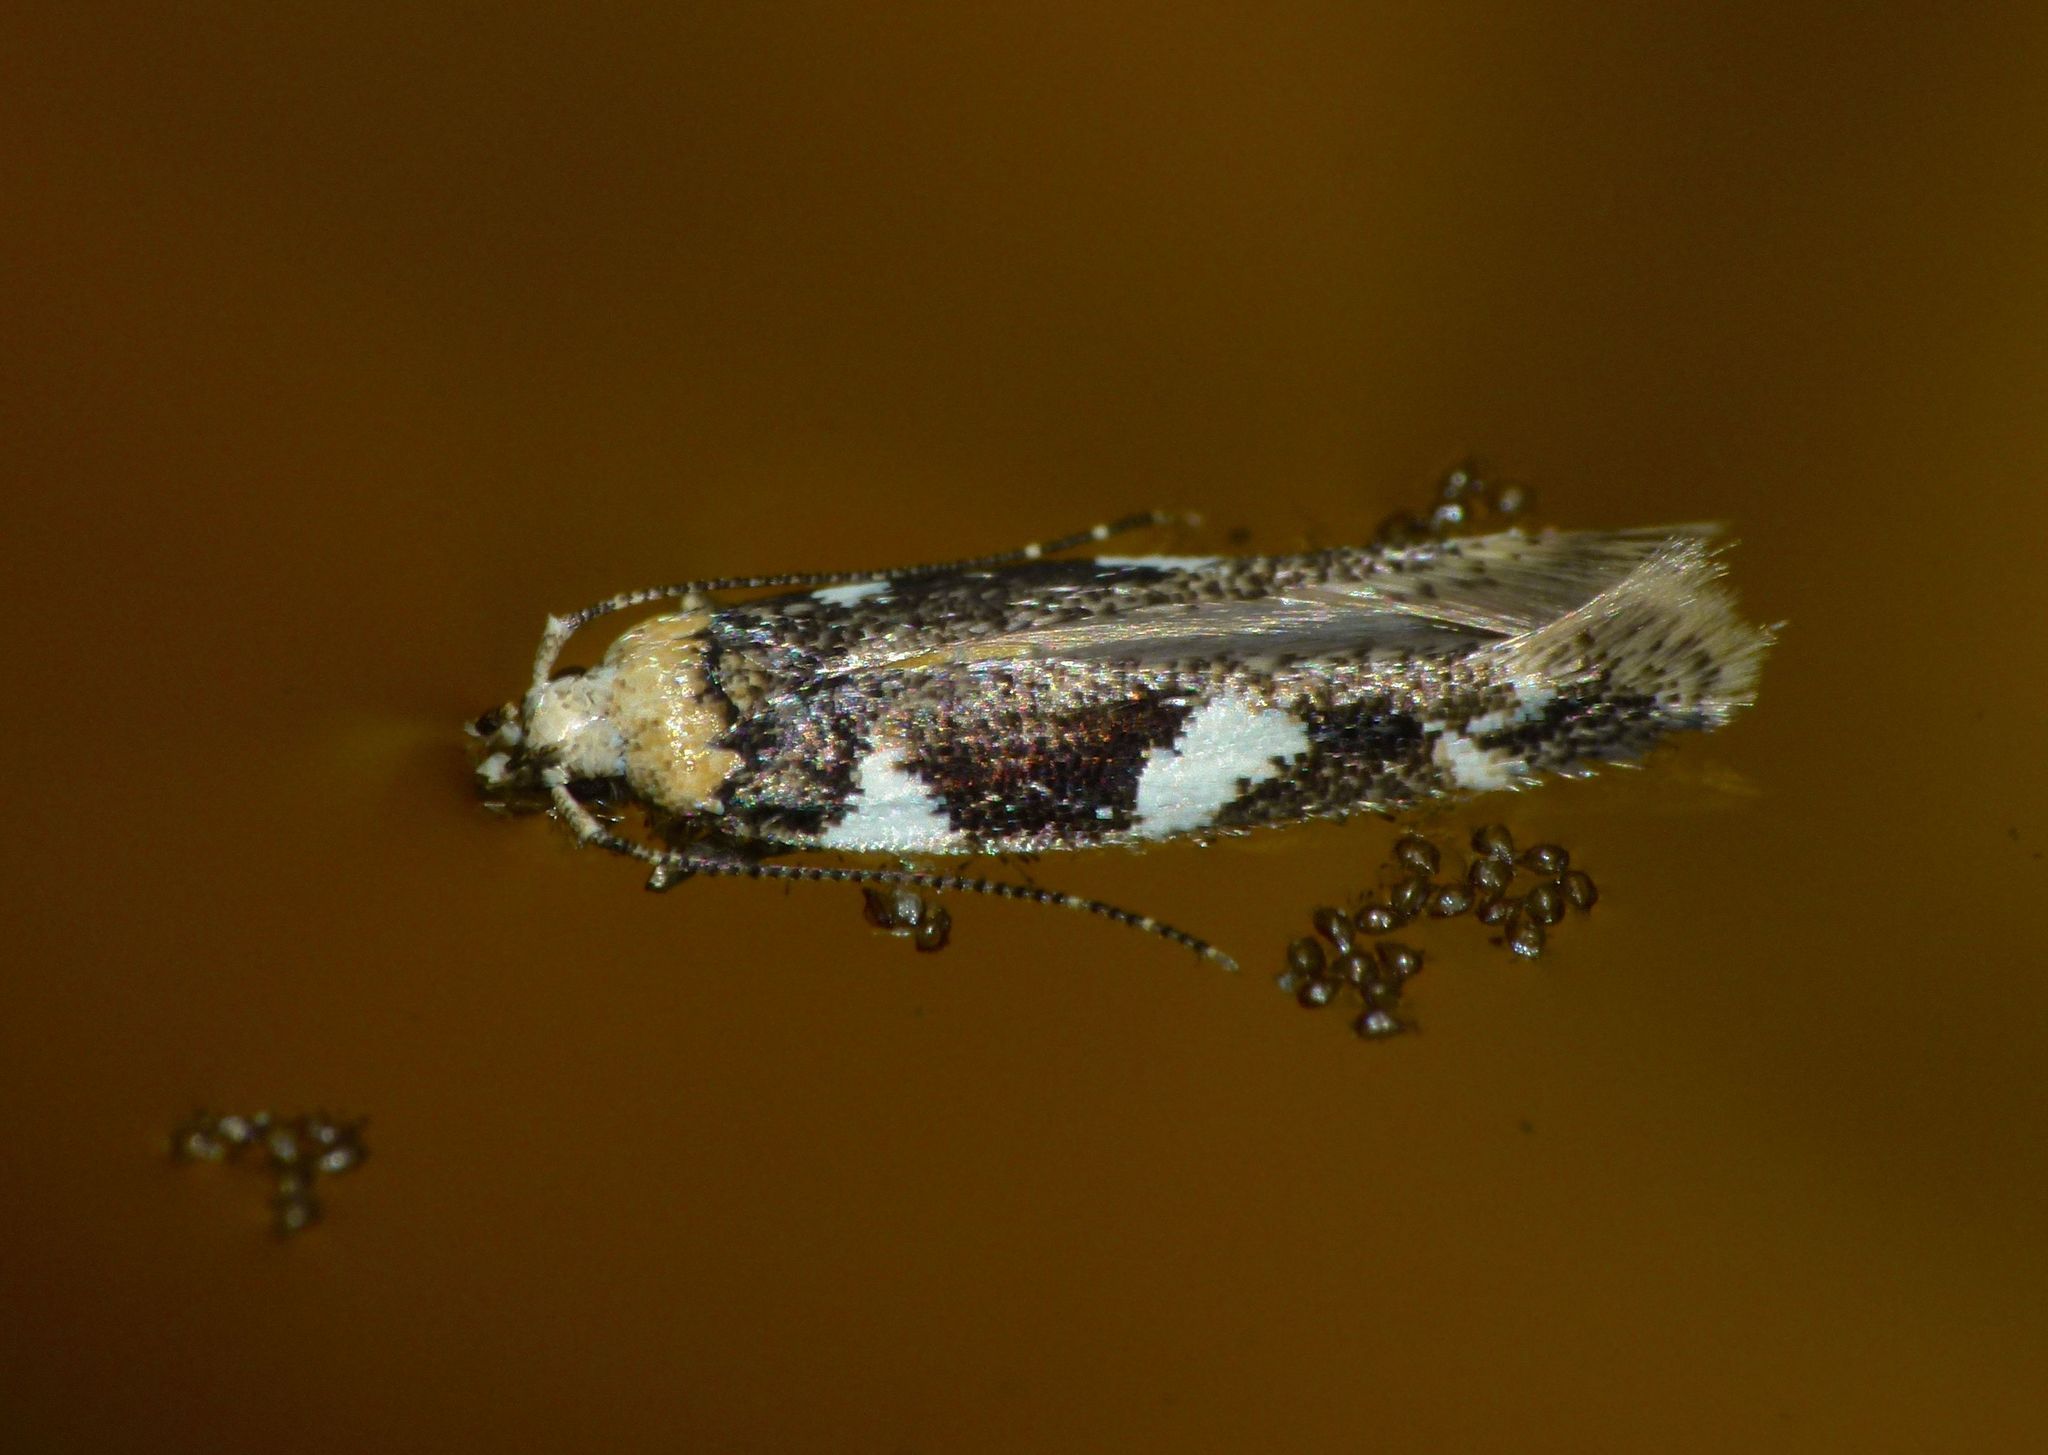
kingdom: Animalia
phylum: Arthropoda
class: Insecta
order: Lepidoptera
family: Cosmopterigidae
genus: Pyroderces
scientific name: Pyroderces deamatella
